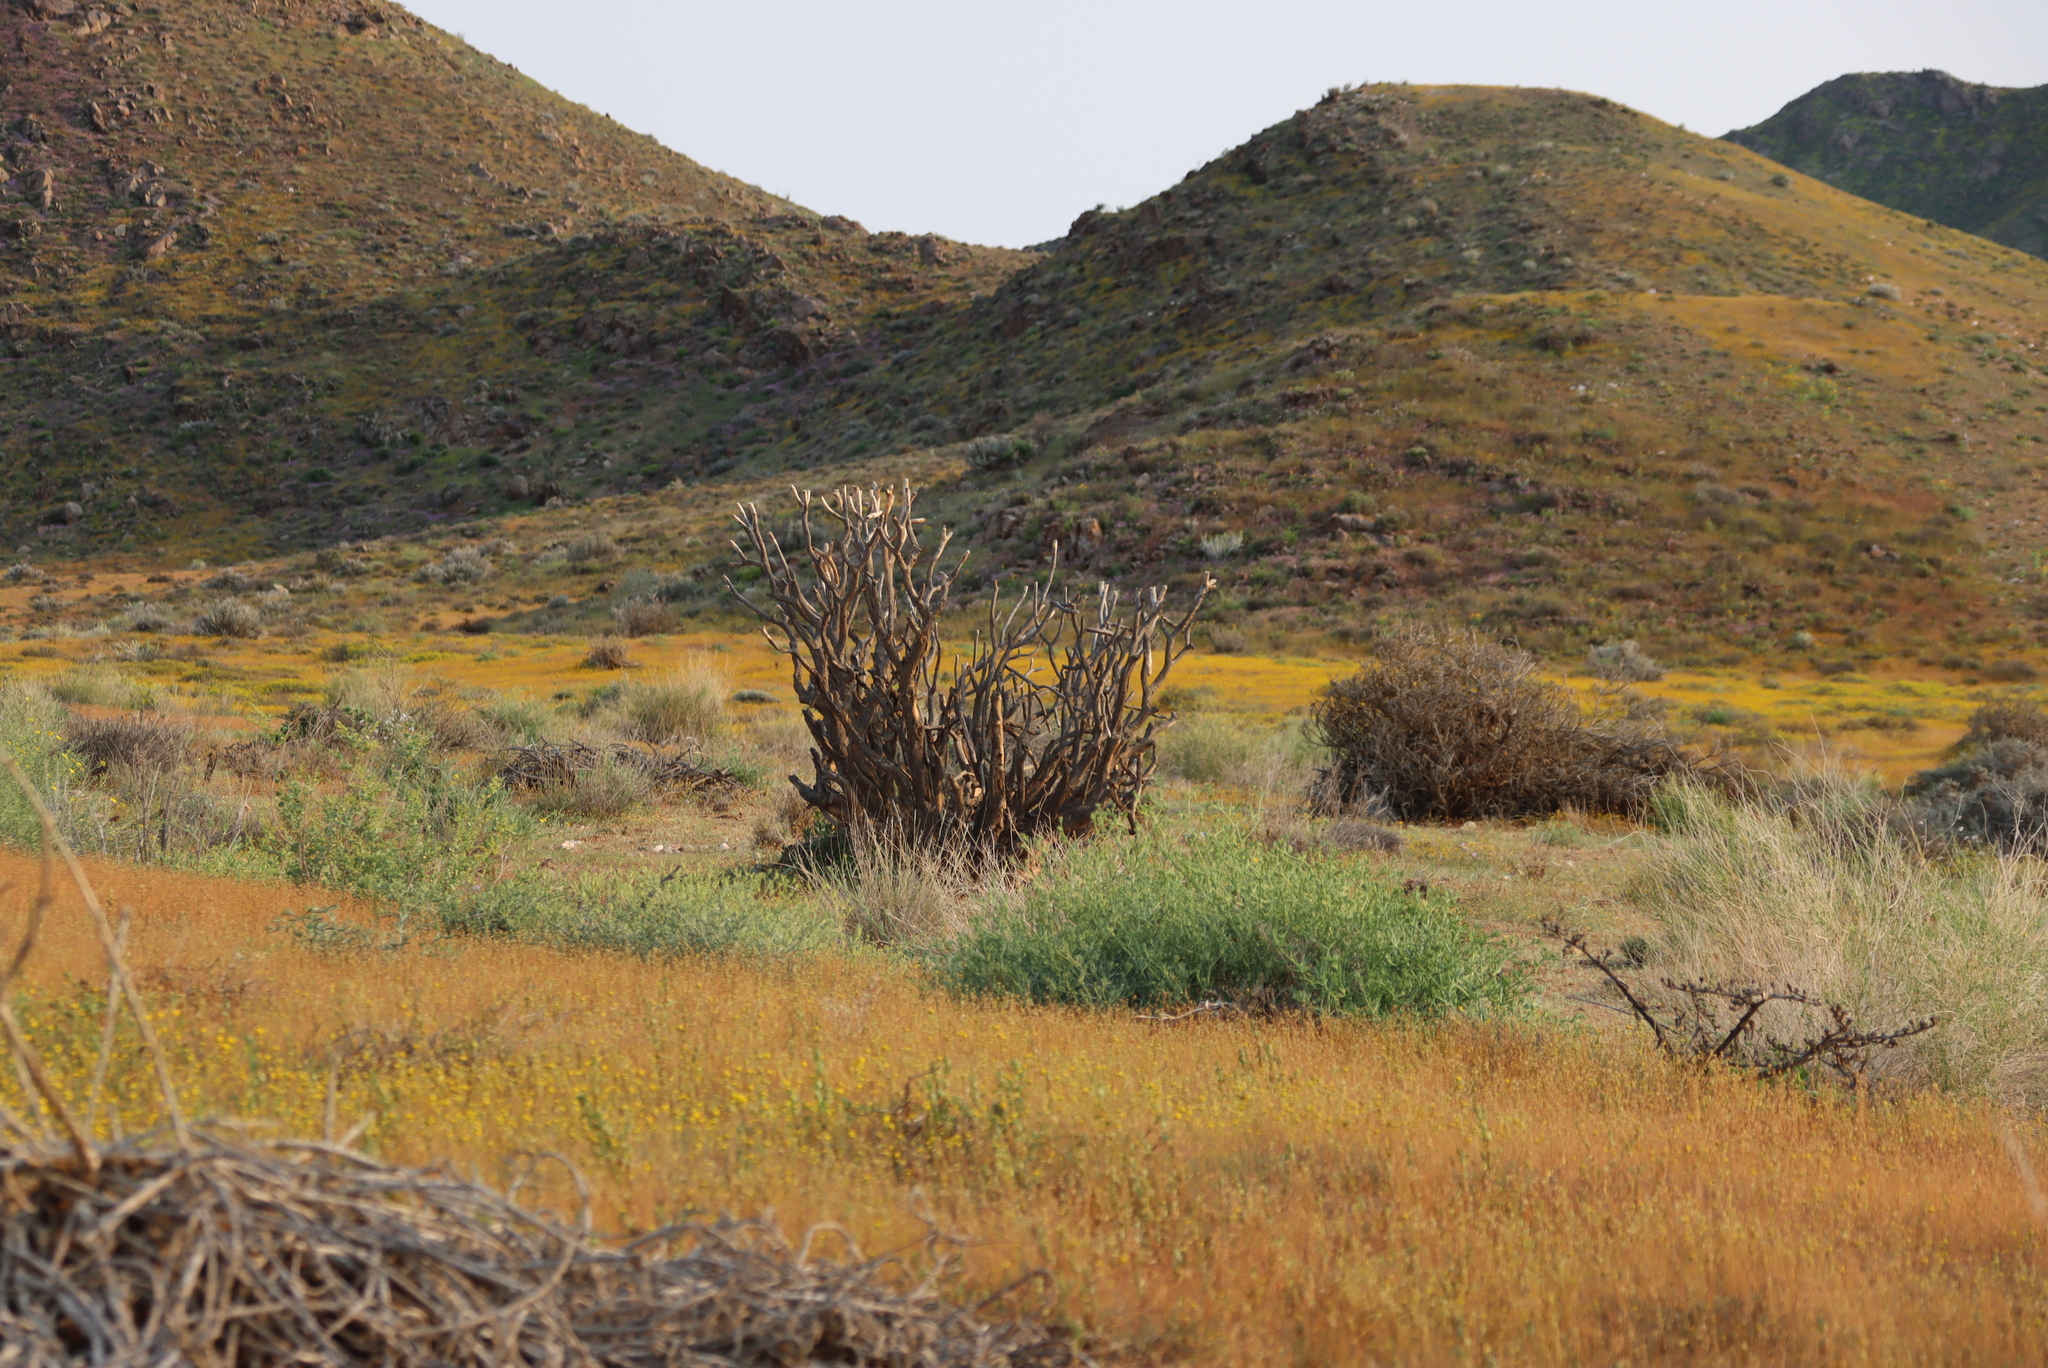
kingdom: Plantae
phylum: Tracheophyta
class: Liliopsida
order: Asparagales
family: Asphodelaceae
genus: Aloidendron
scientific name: Aloidendron ramosissimum
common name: Bush quiver tree
